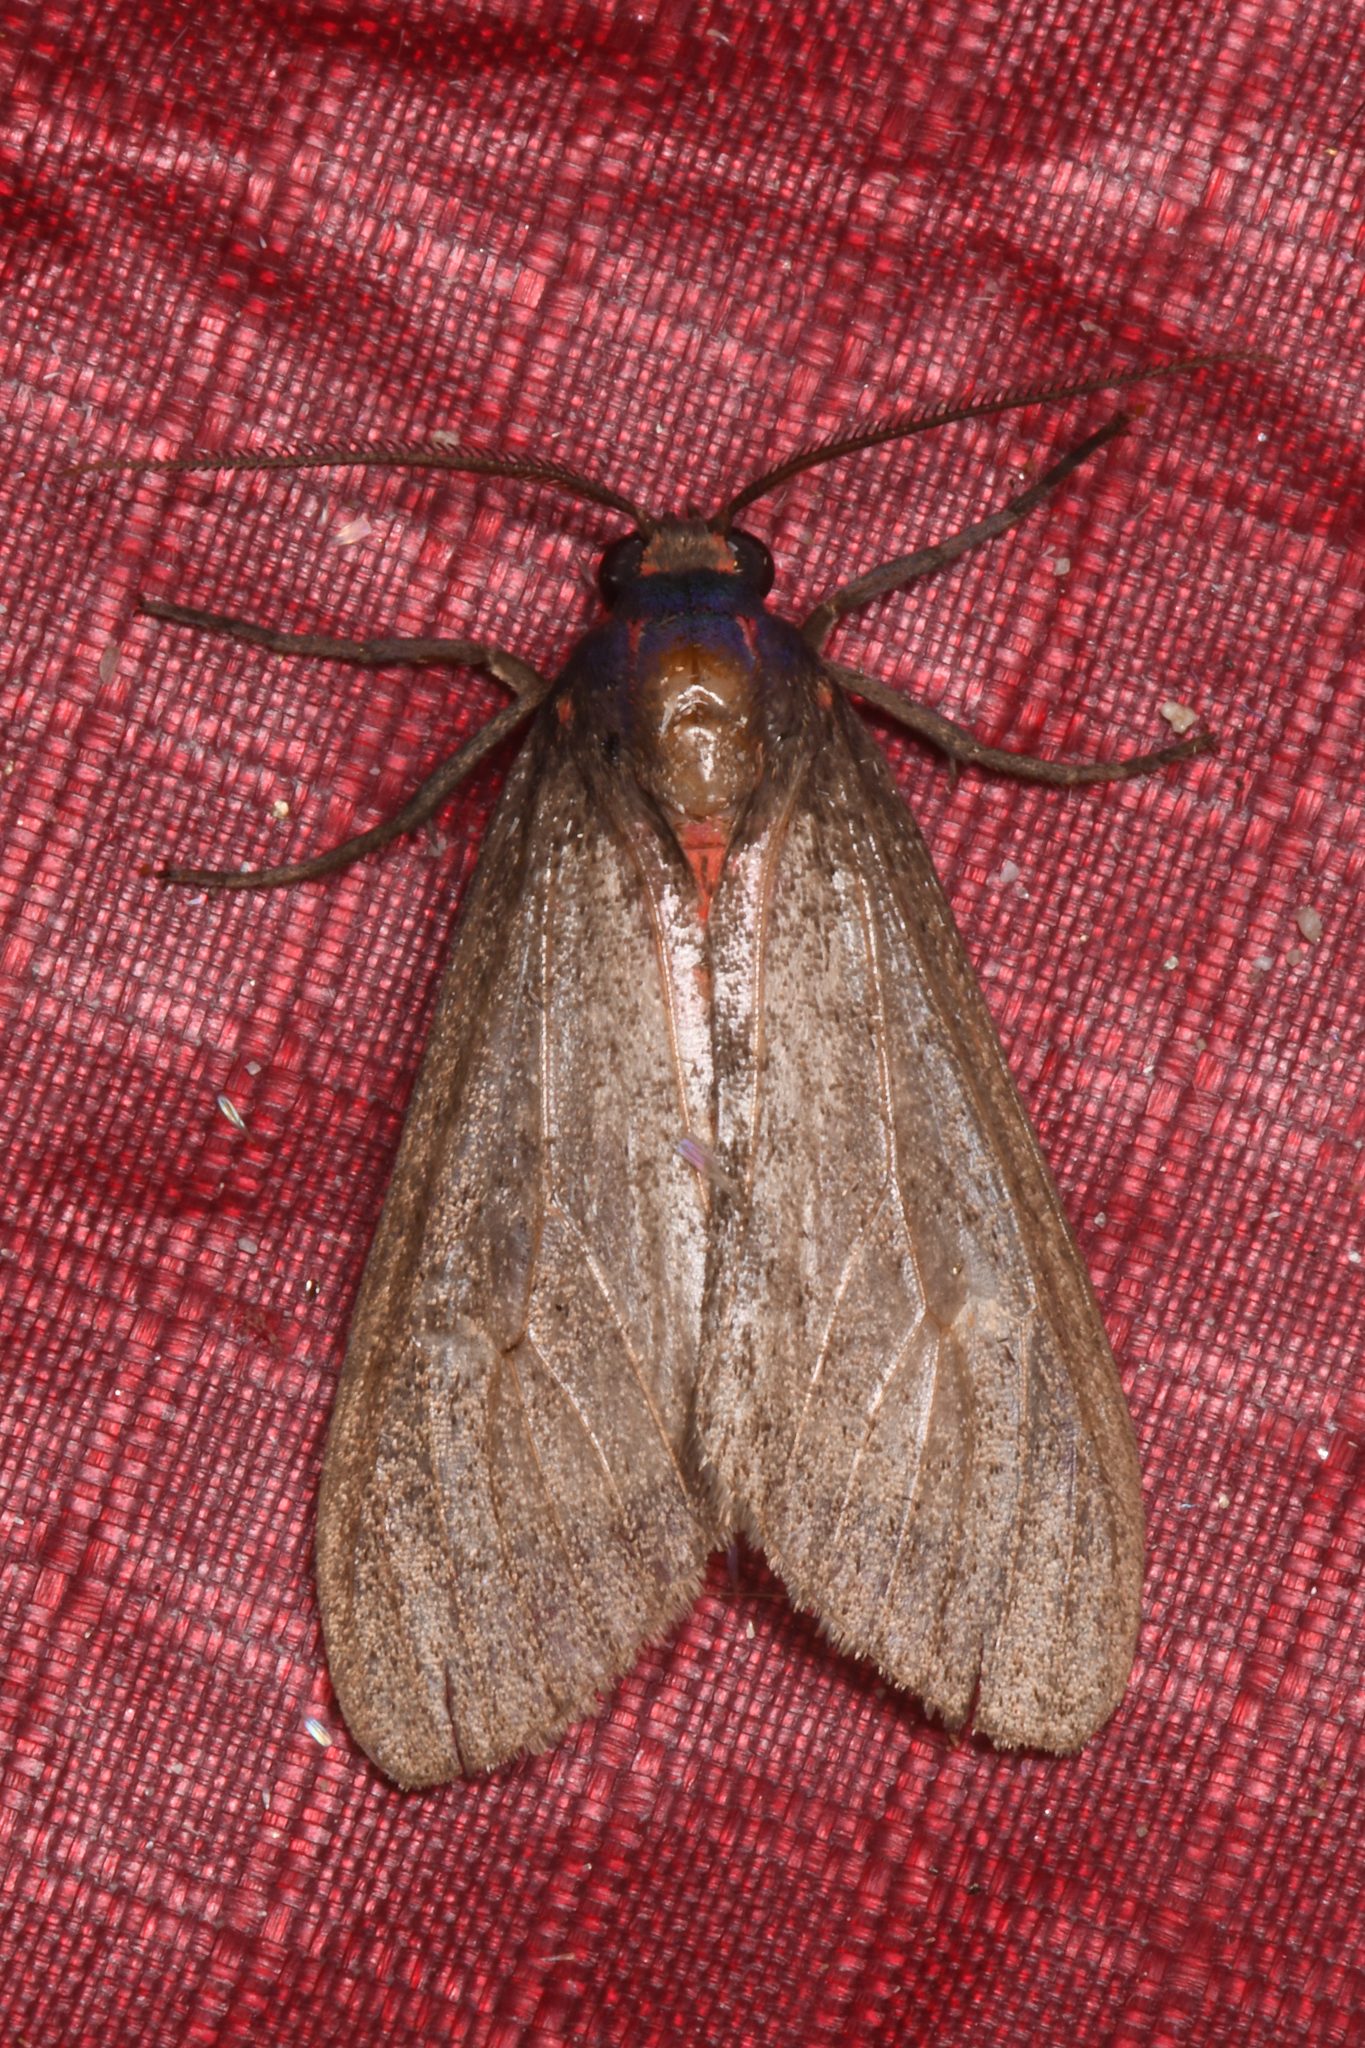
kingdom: Animalia
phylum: Arthropoda
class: Insecta
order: Lepidoptera
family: Erebidae
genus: Euchaetes
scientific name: Euchaetes zella
